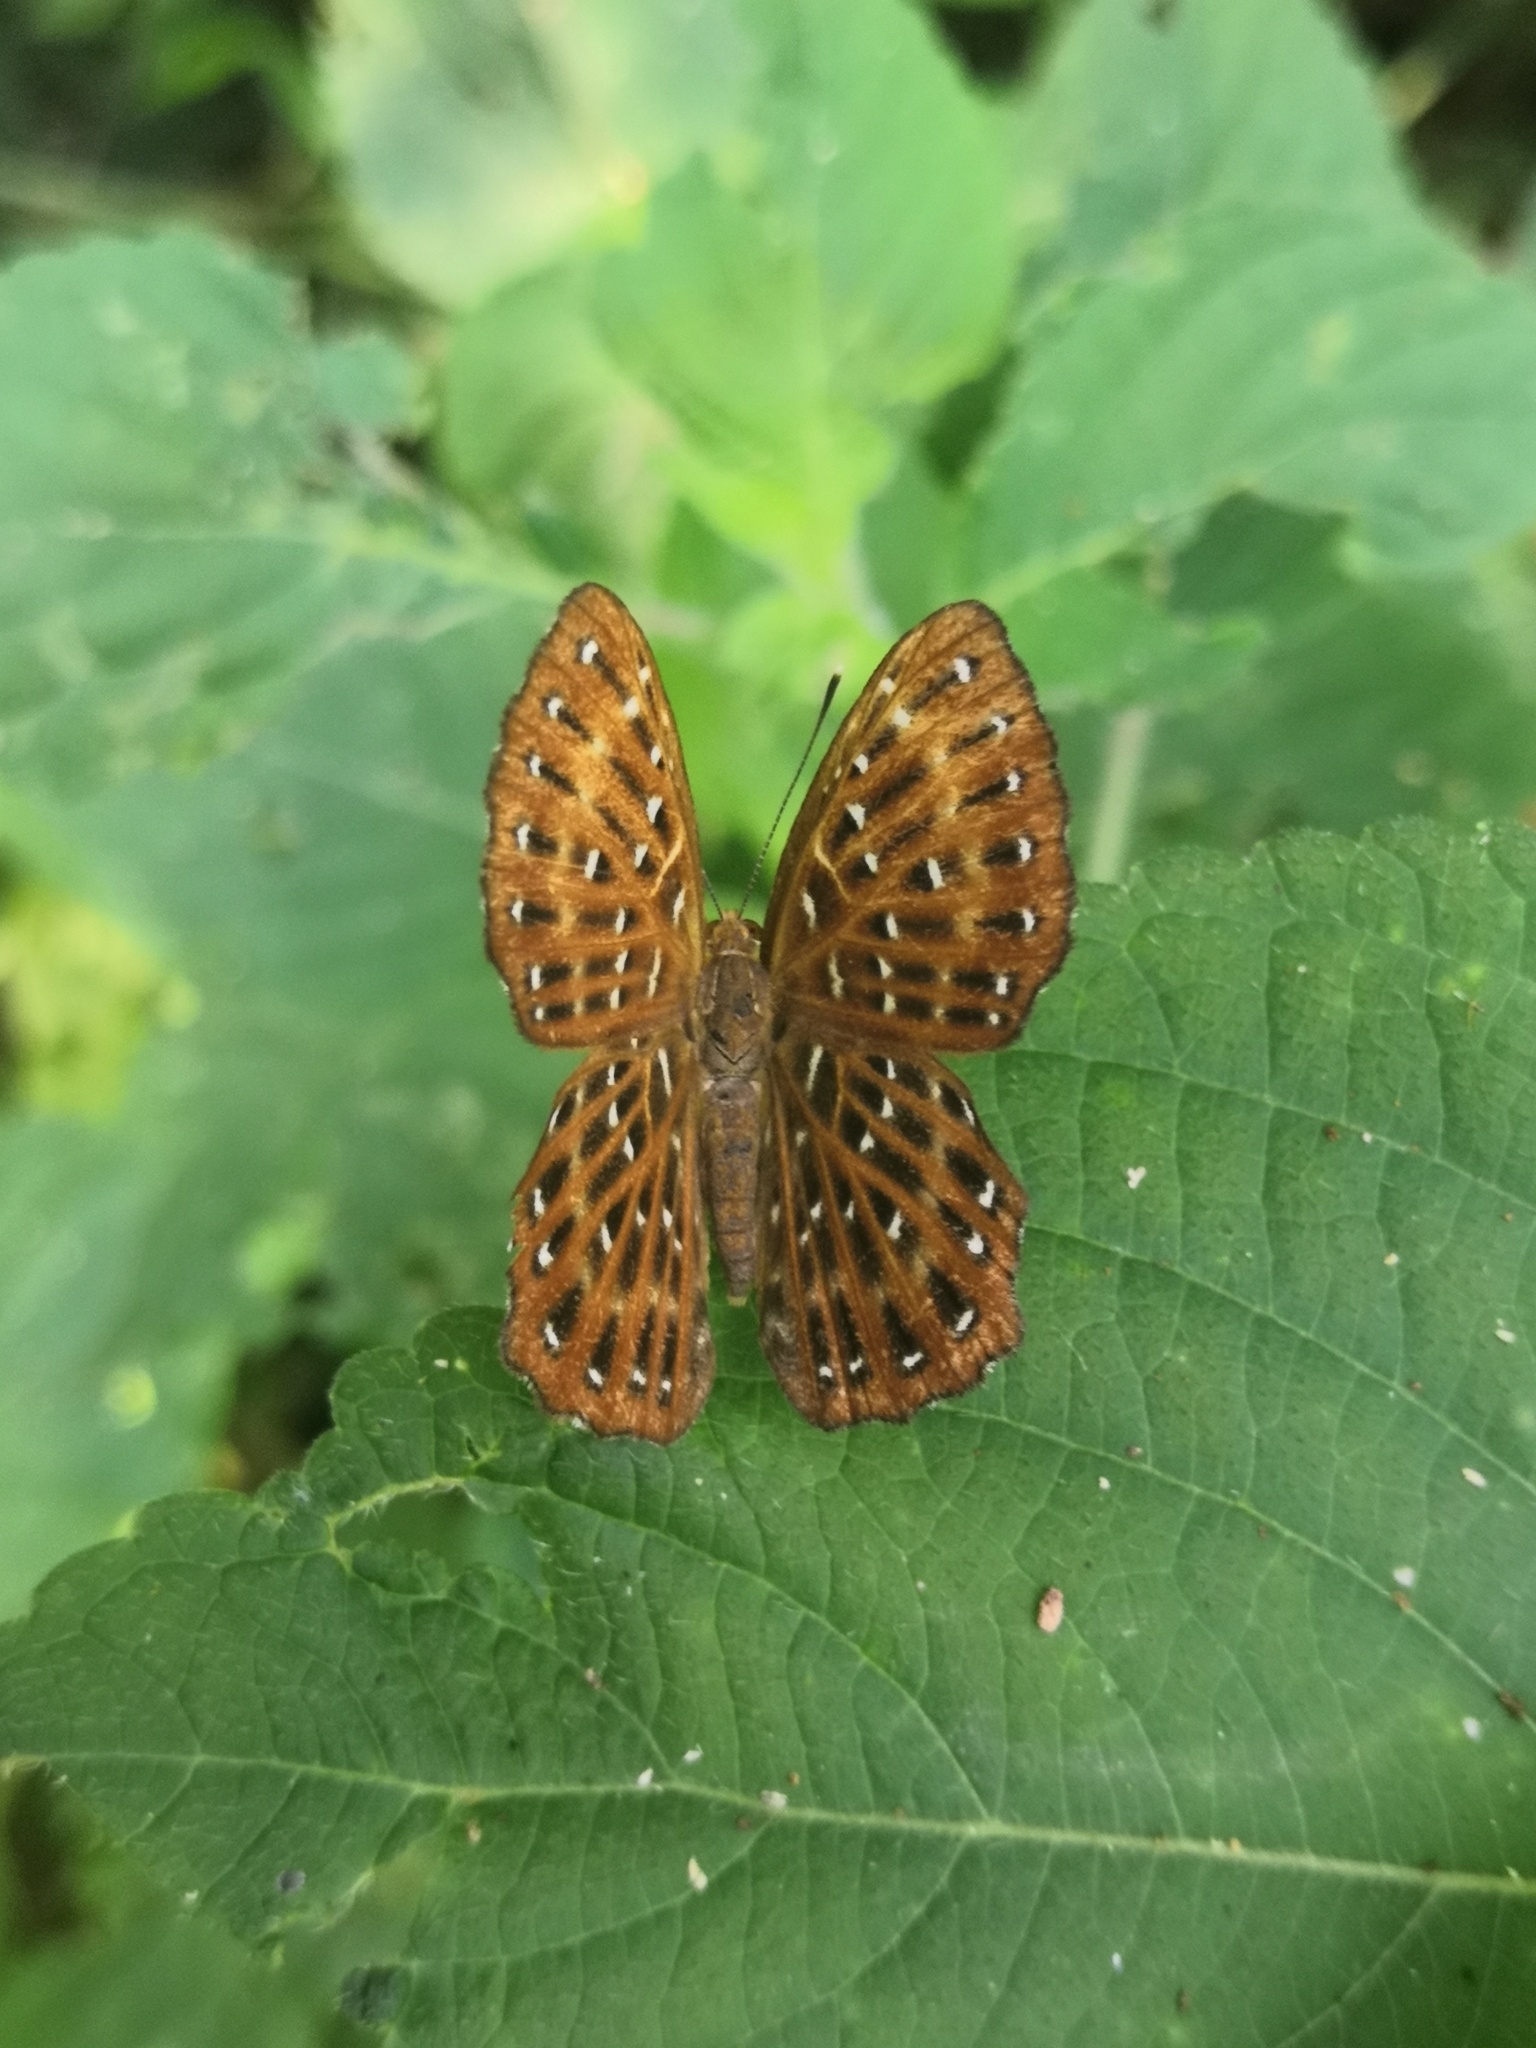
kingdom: Animalia
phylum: Arthropoda
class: Insecta
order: Lepidoptera
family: Riodinidae
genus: Zemeros
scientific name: Zemeros flegyas
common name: Punchinello
